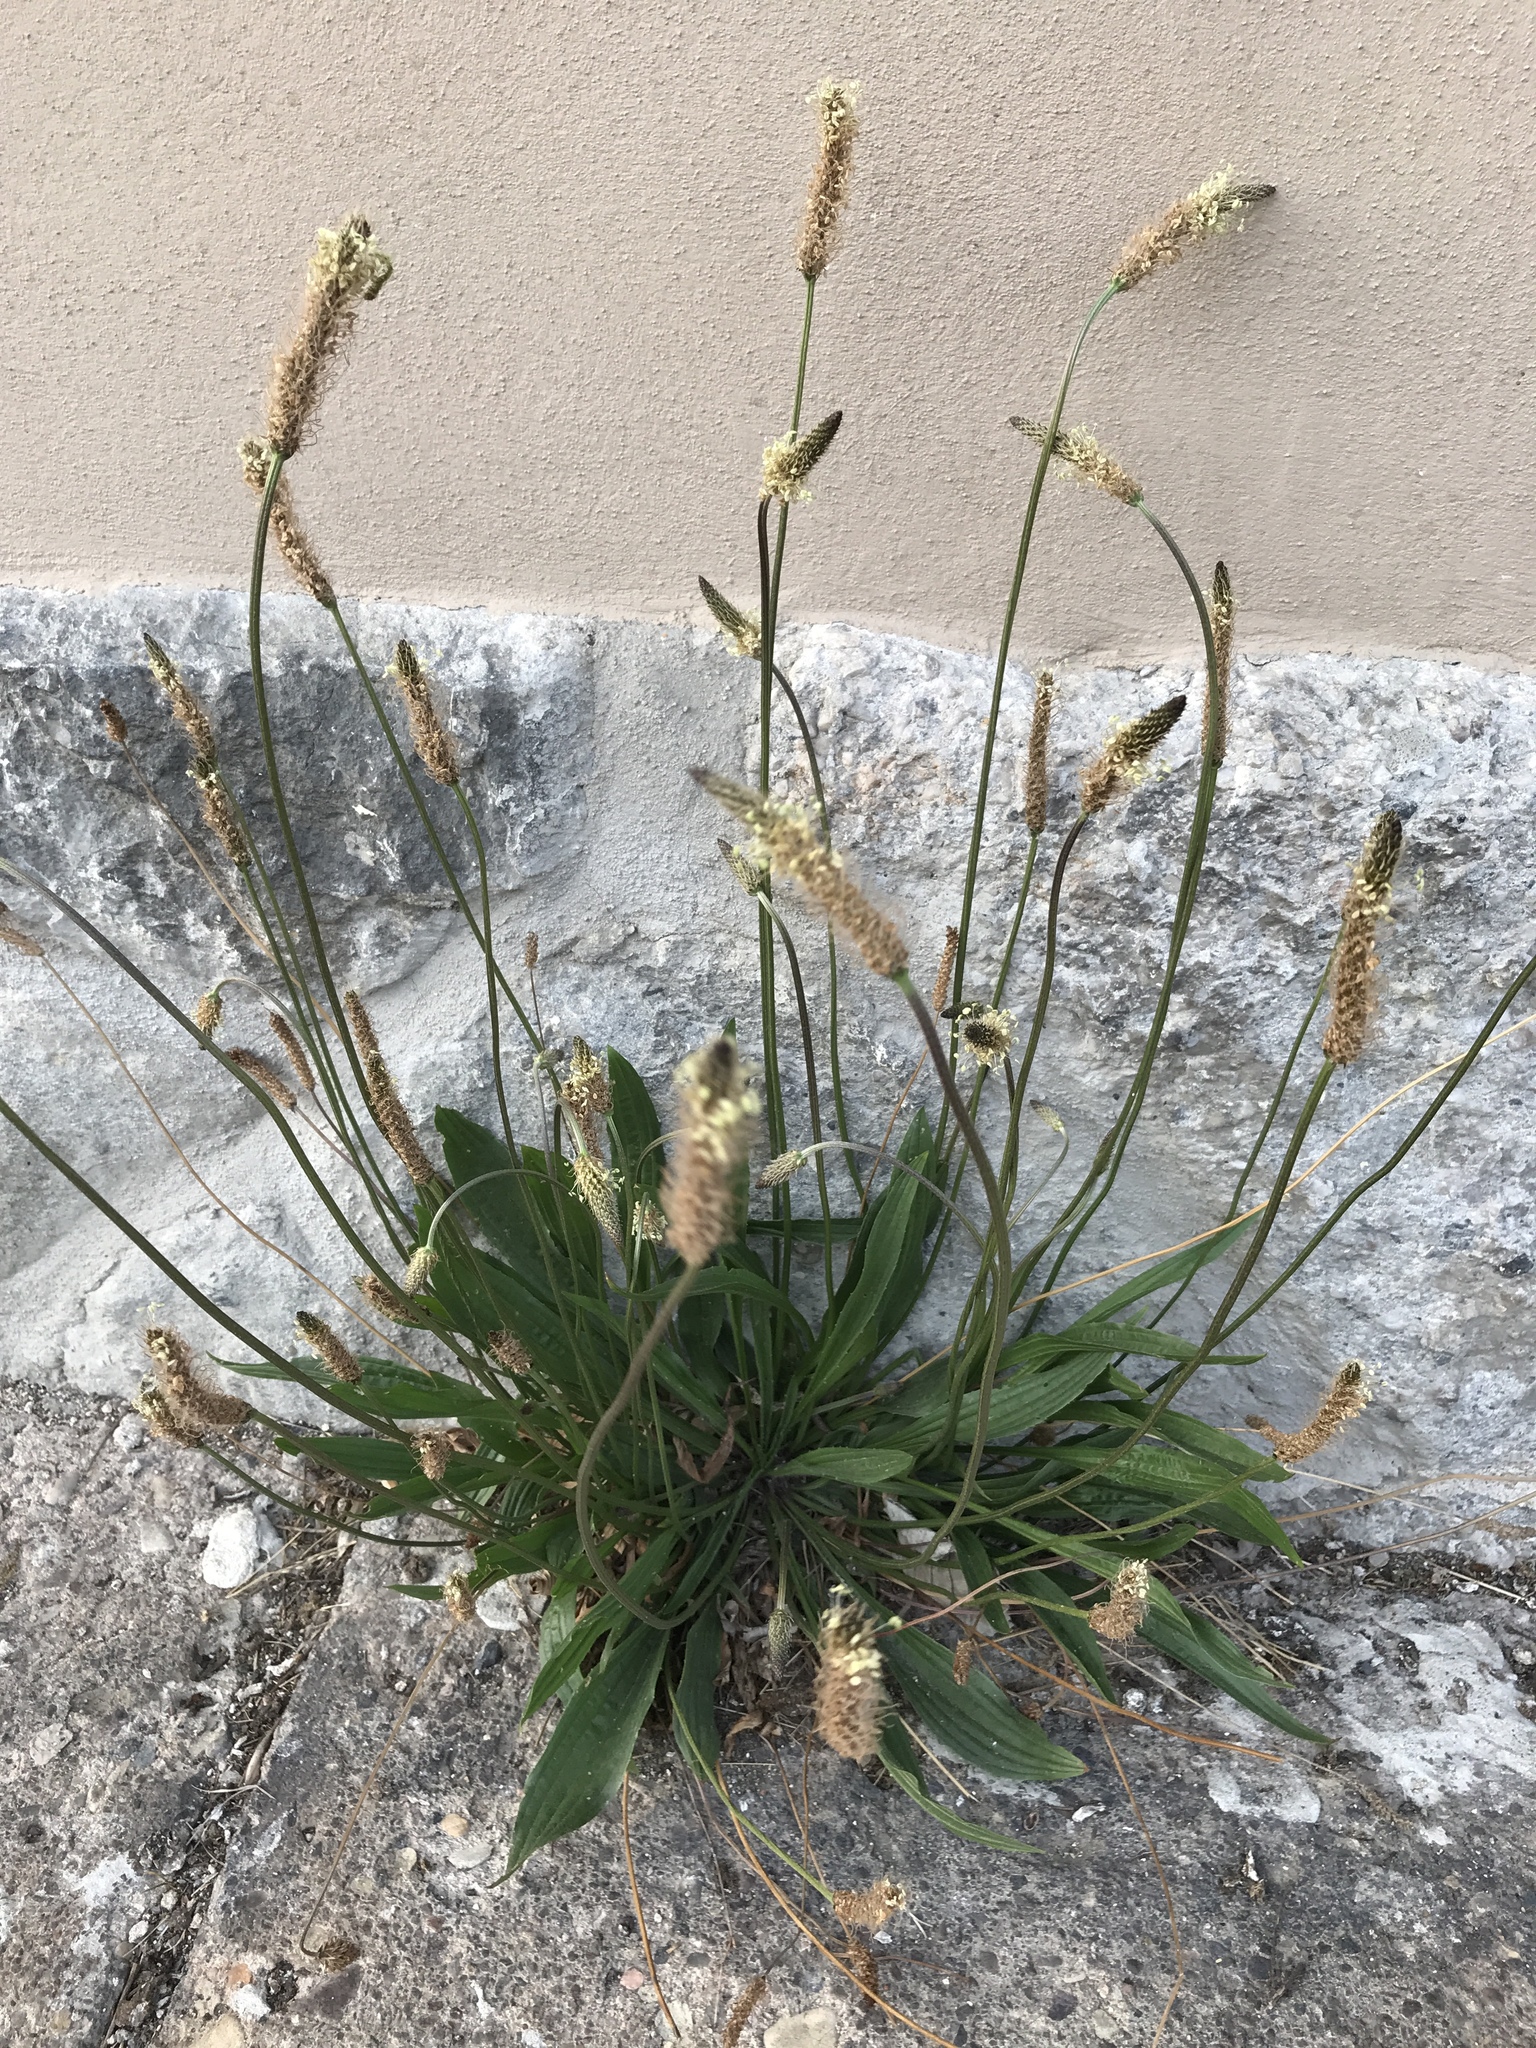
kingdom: Plantae
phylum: Tracheophyta
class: Magnoliopsida
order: Lamiales
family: Plantaginaceae
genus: Plantago
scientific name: Plantago lanceolata
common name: Ribwort plantain
